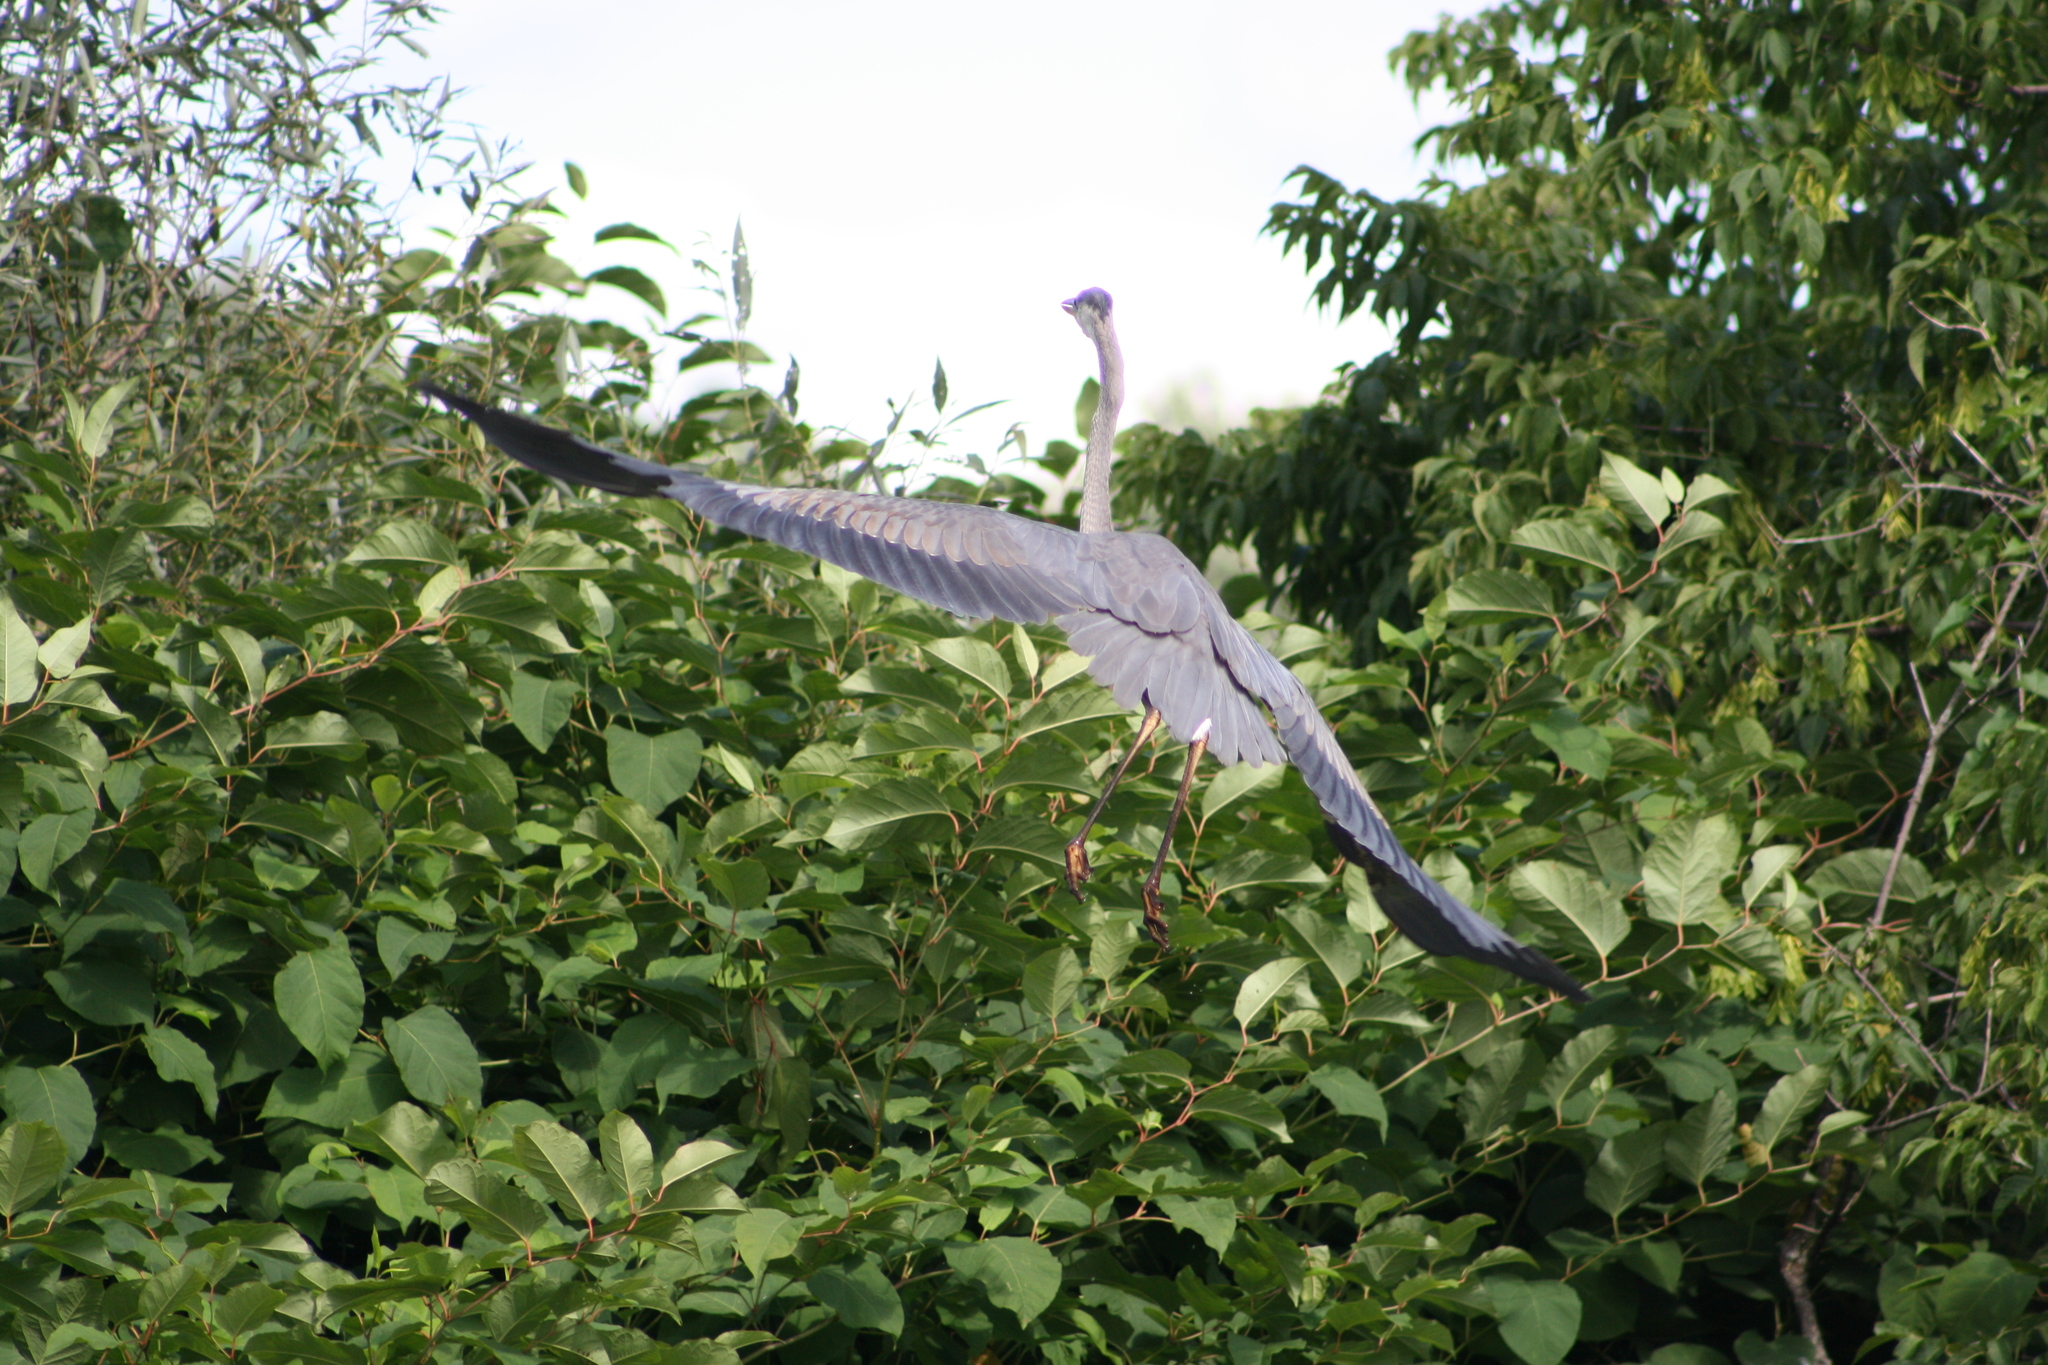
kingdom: Animalia
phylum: Chordata
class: Aves
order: Pelecaniformes
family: Ardeidae
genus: Ardea
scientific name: Ardea herodias
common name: Great blue heron
